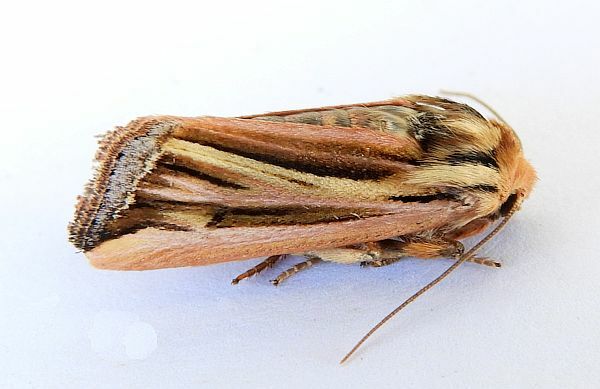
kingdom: Animalia
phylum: Arthropoda
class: Insecta
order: Lepidoptera
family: Noctuidae
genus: Eriopyga
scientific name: Eriopyga ferricola
